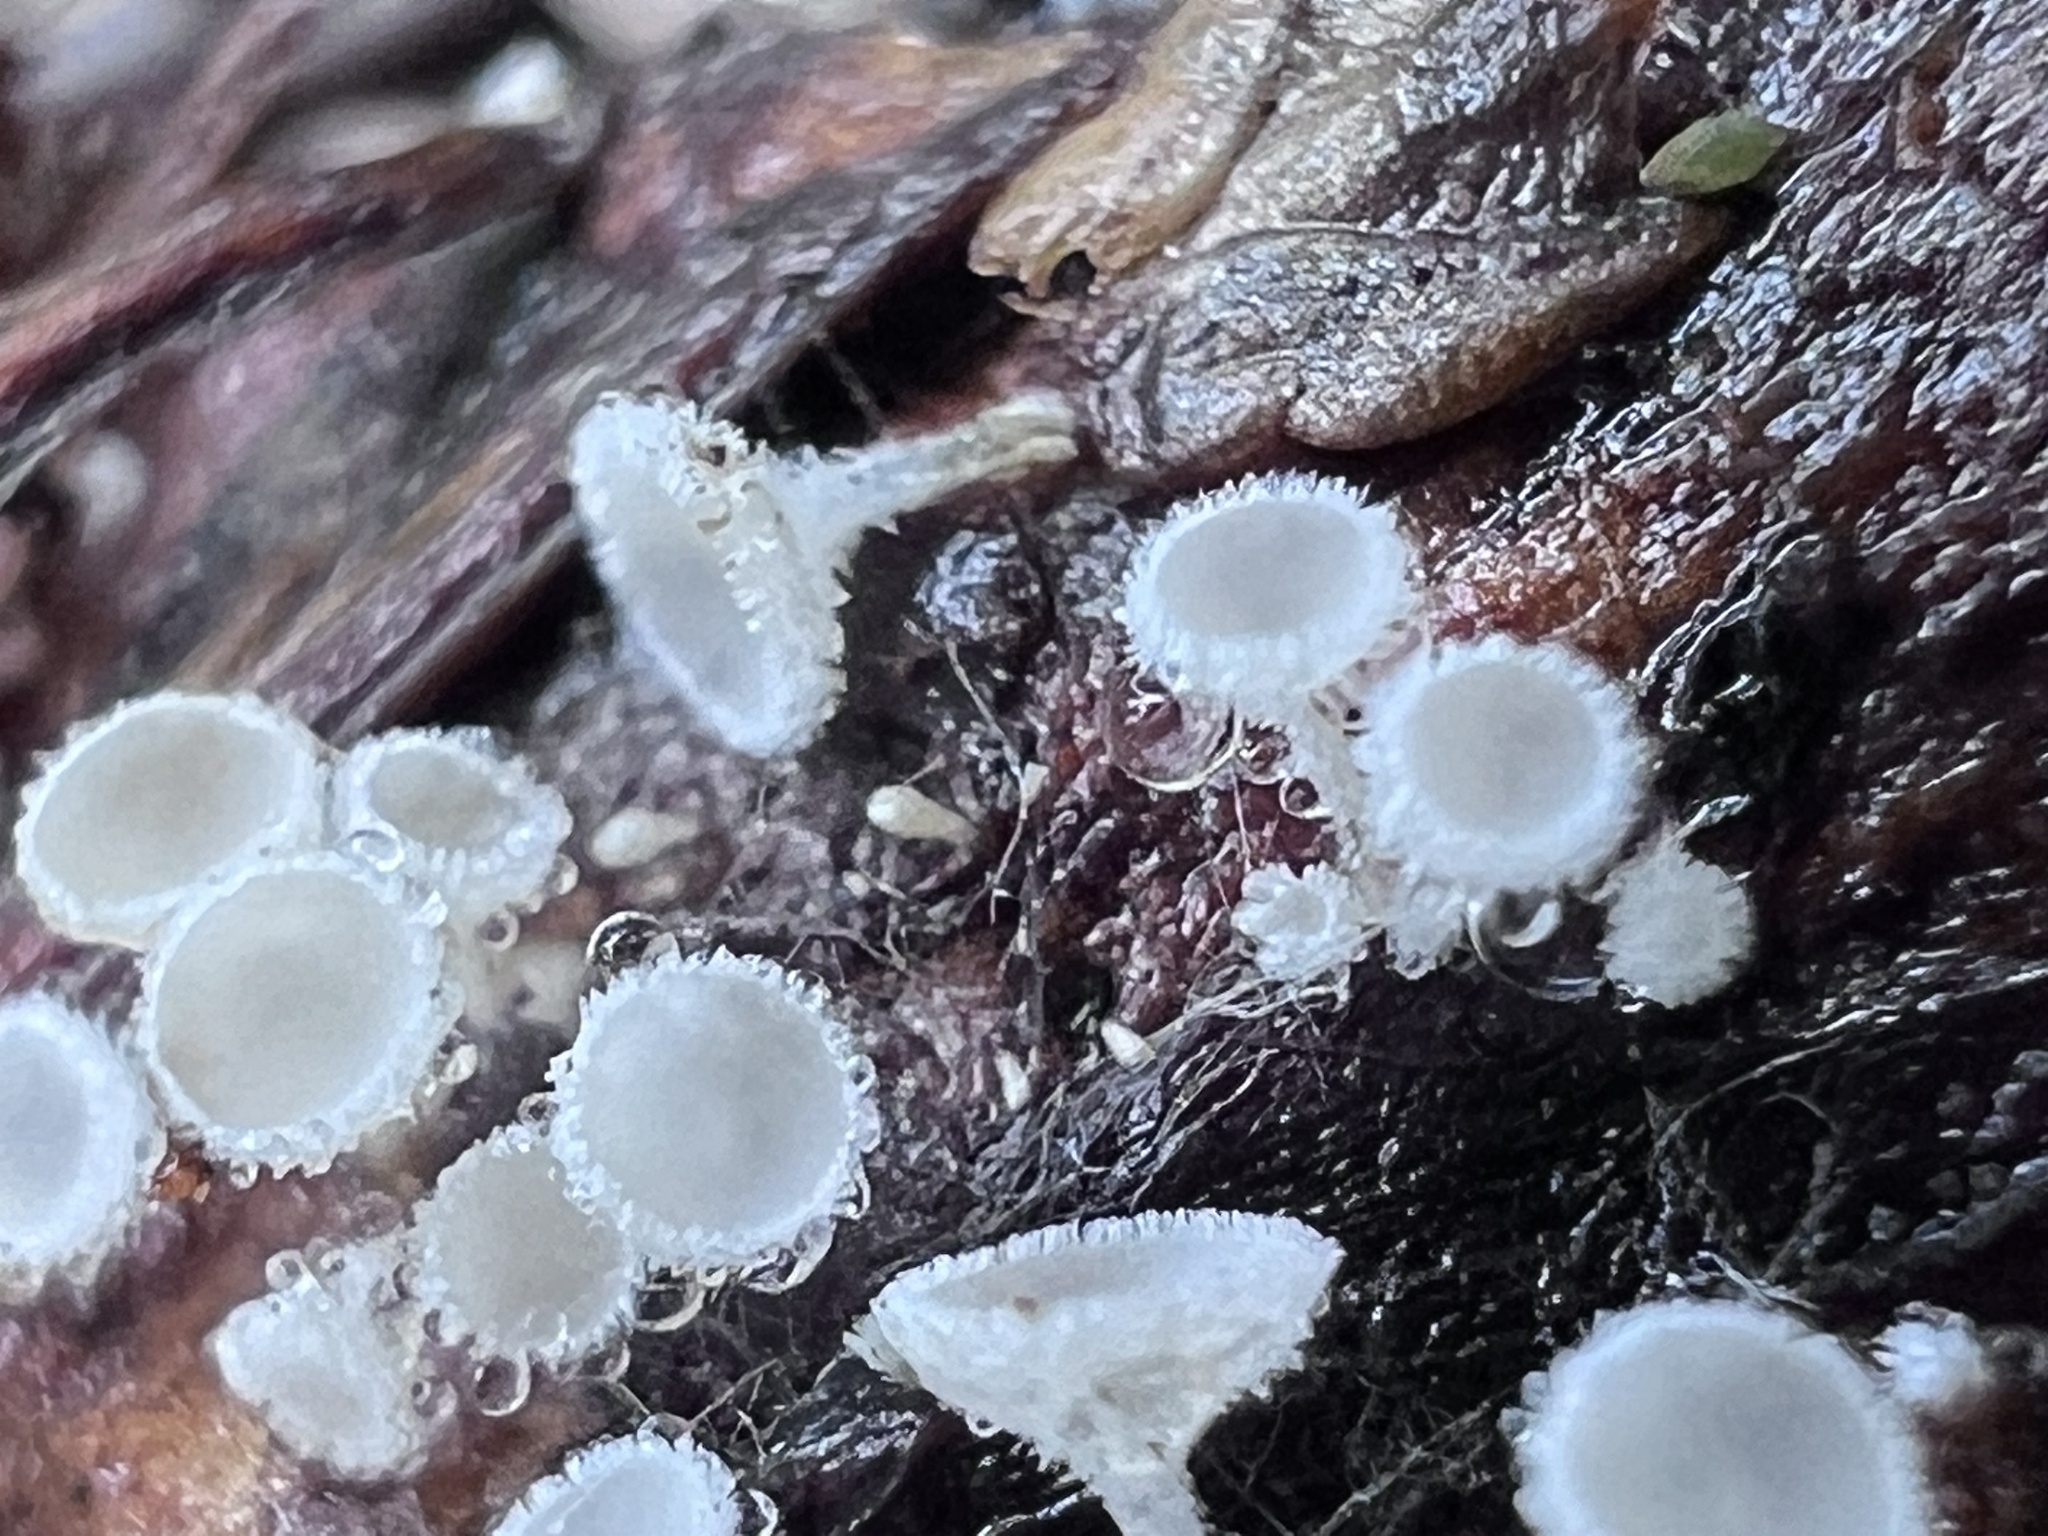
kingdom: Fungi
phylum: Ascomycota
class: Leotiomycetes
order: Helotiales
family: Lachnaceae
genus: Lachnum
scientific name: Lachnum virgineum
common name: Snowy disco
